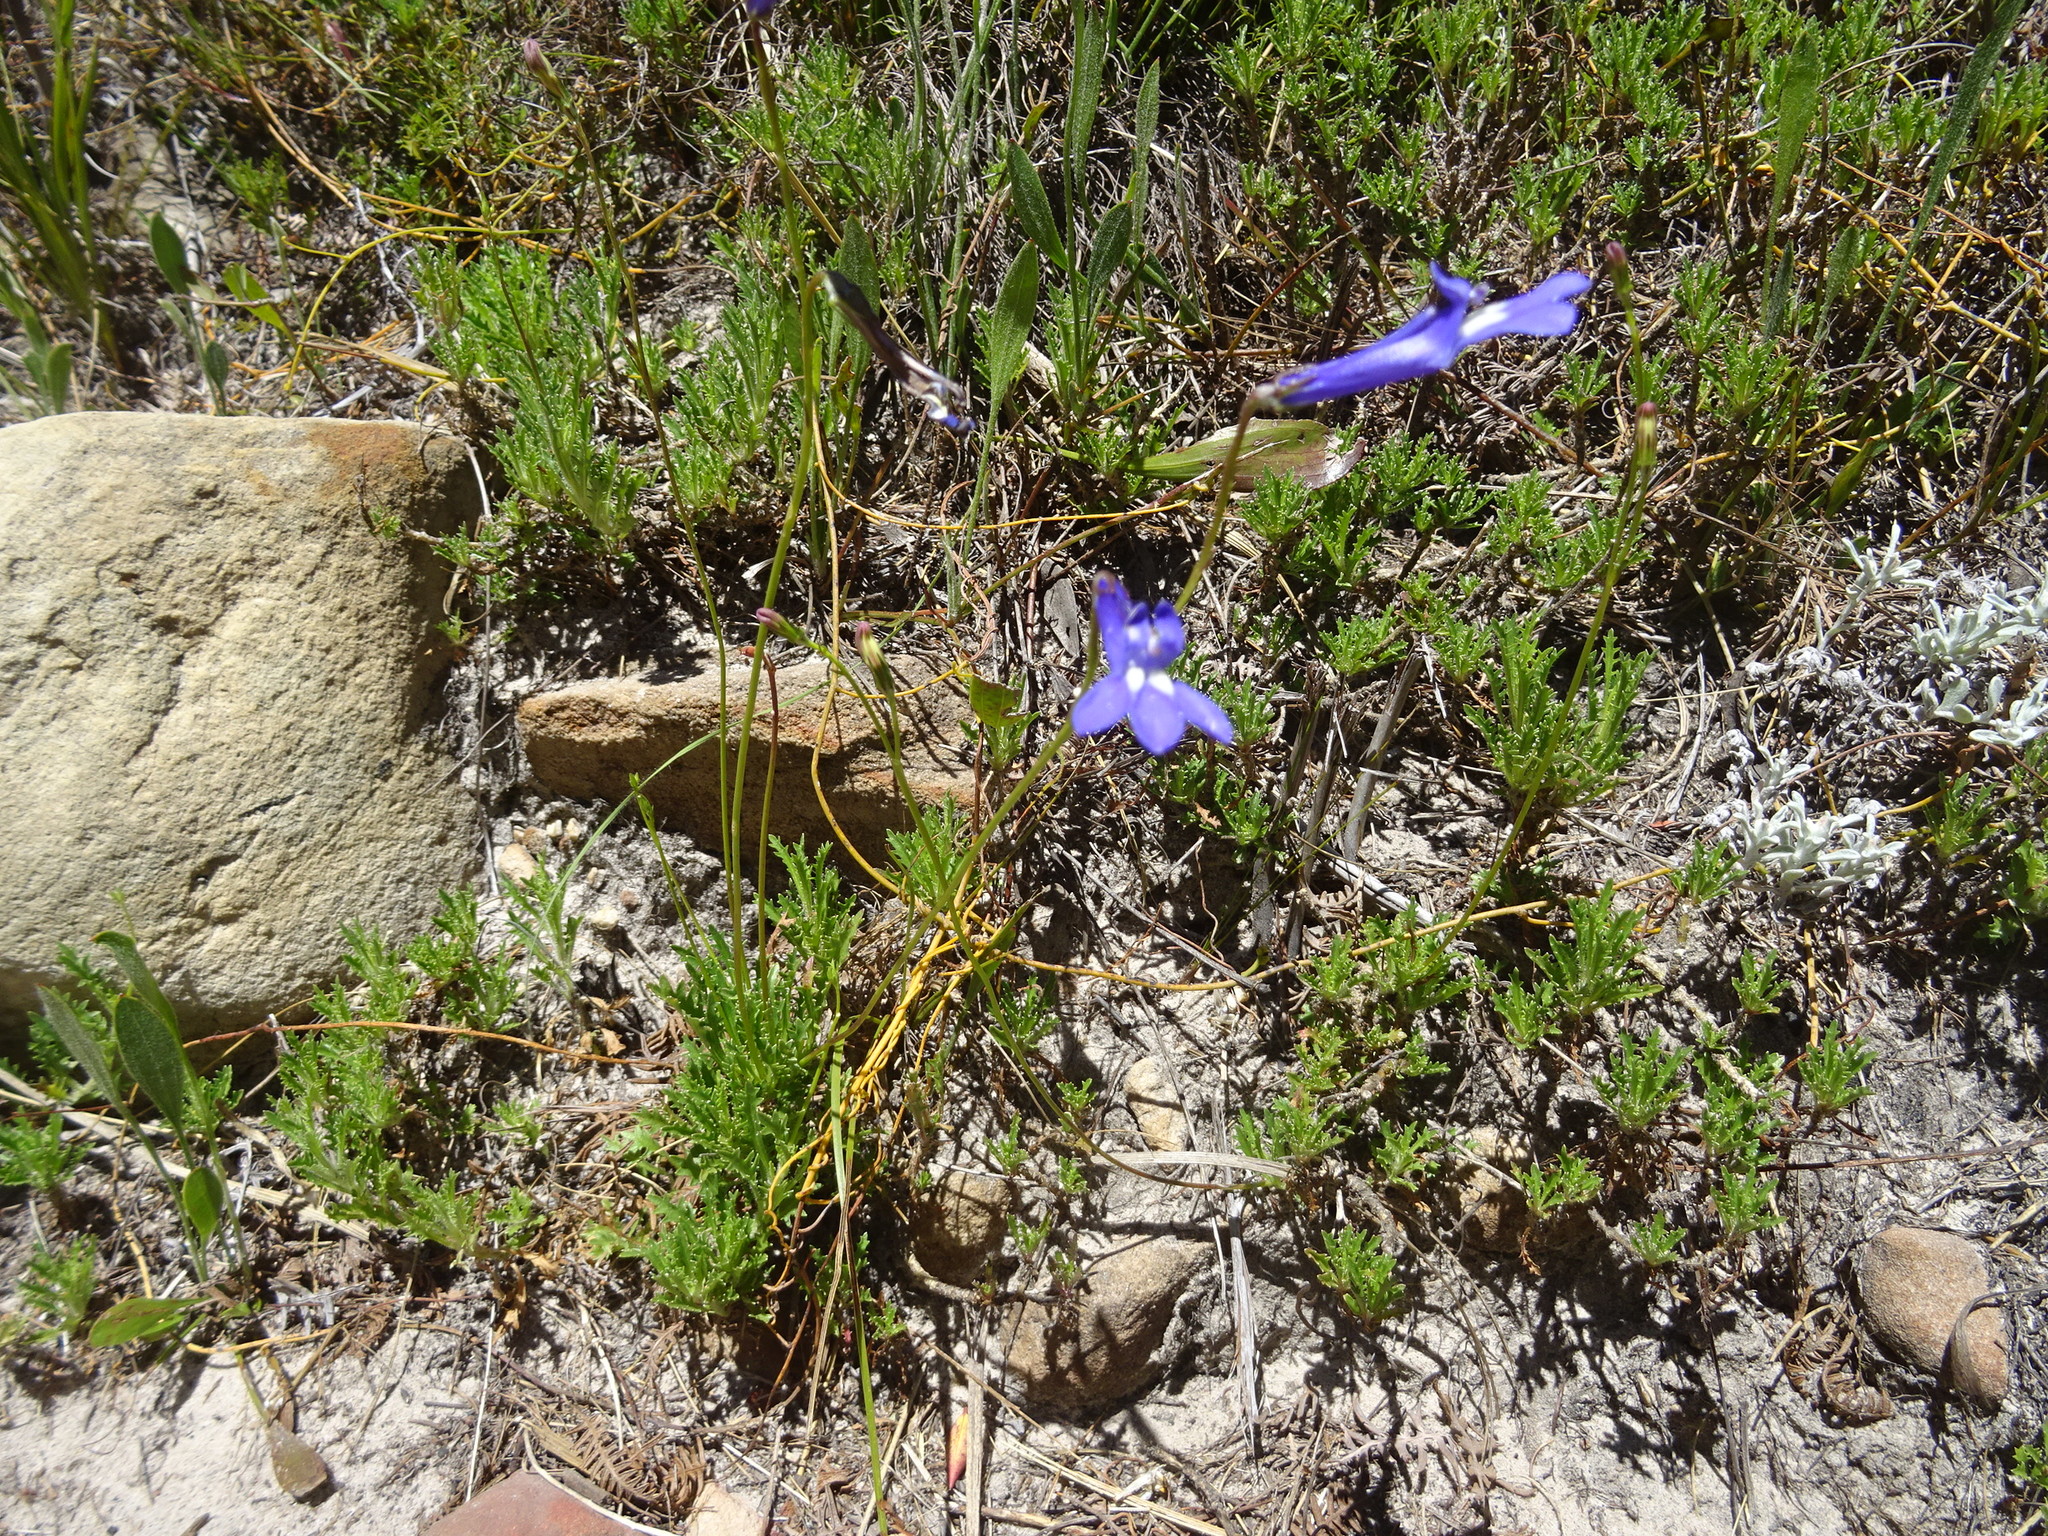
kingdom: Plantae
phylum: Tracheophyta
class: Magnoliopsida
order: Asterales
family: Campanulaceae
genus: Lobelia
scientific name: Lobelia coronopifolia
